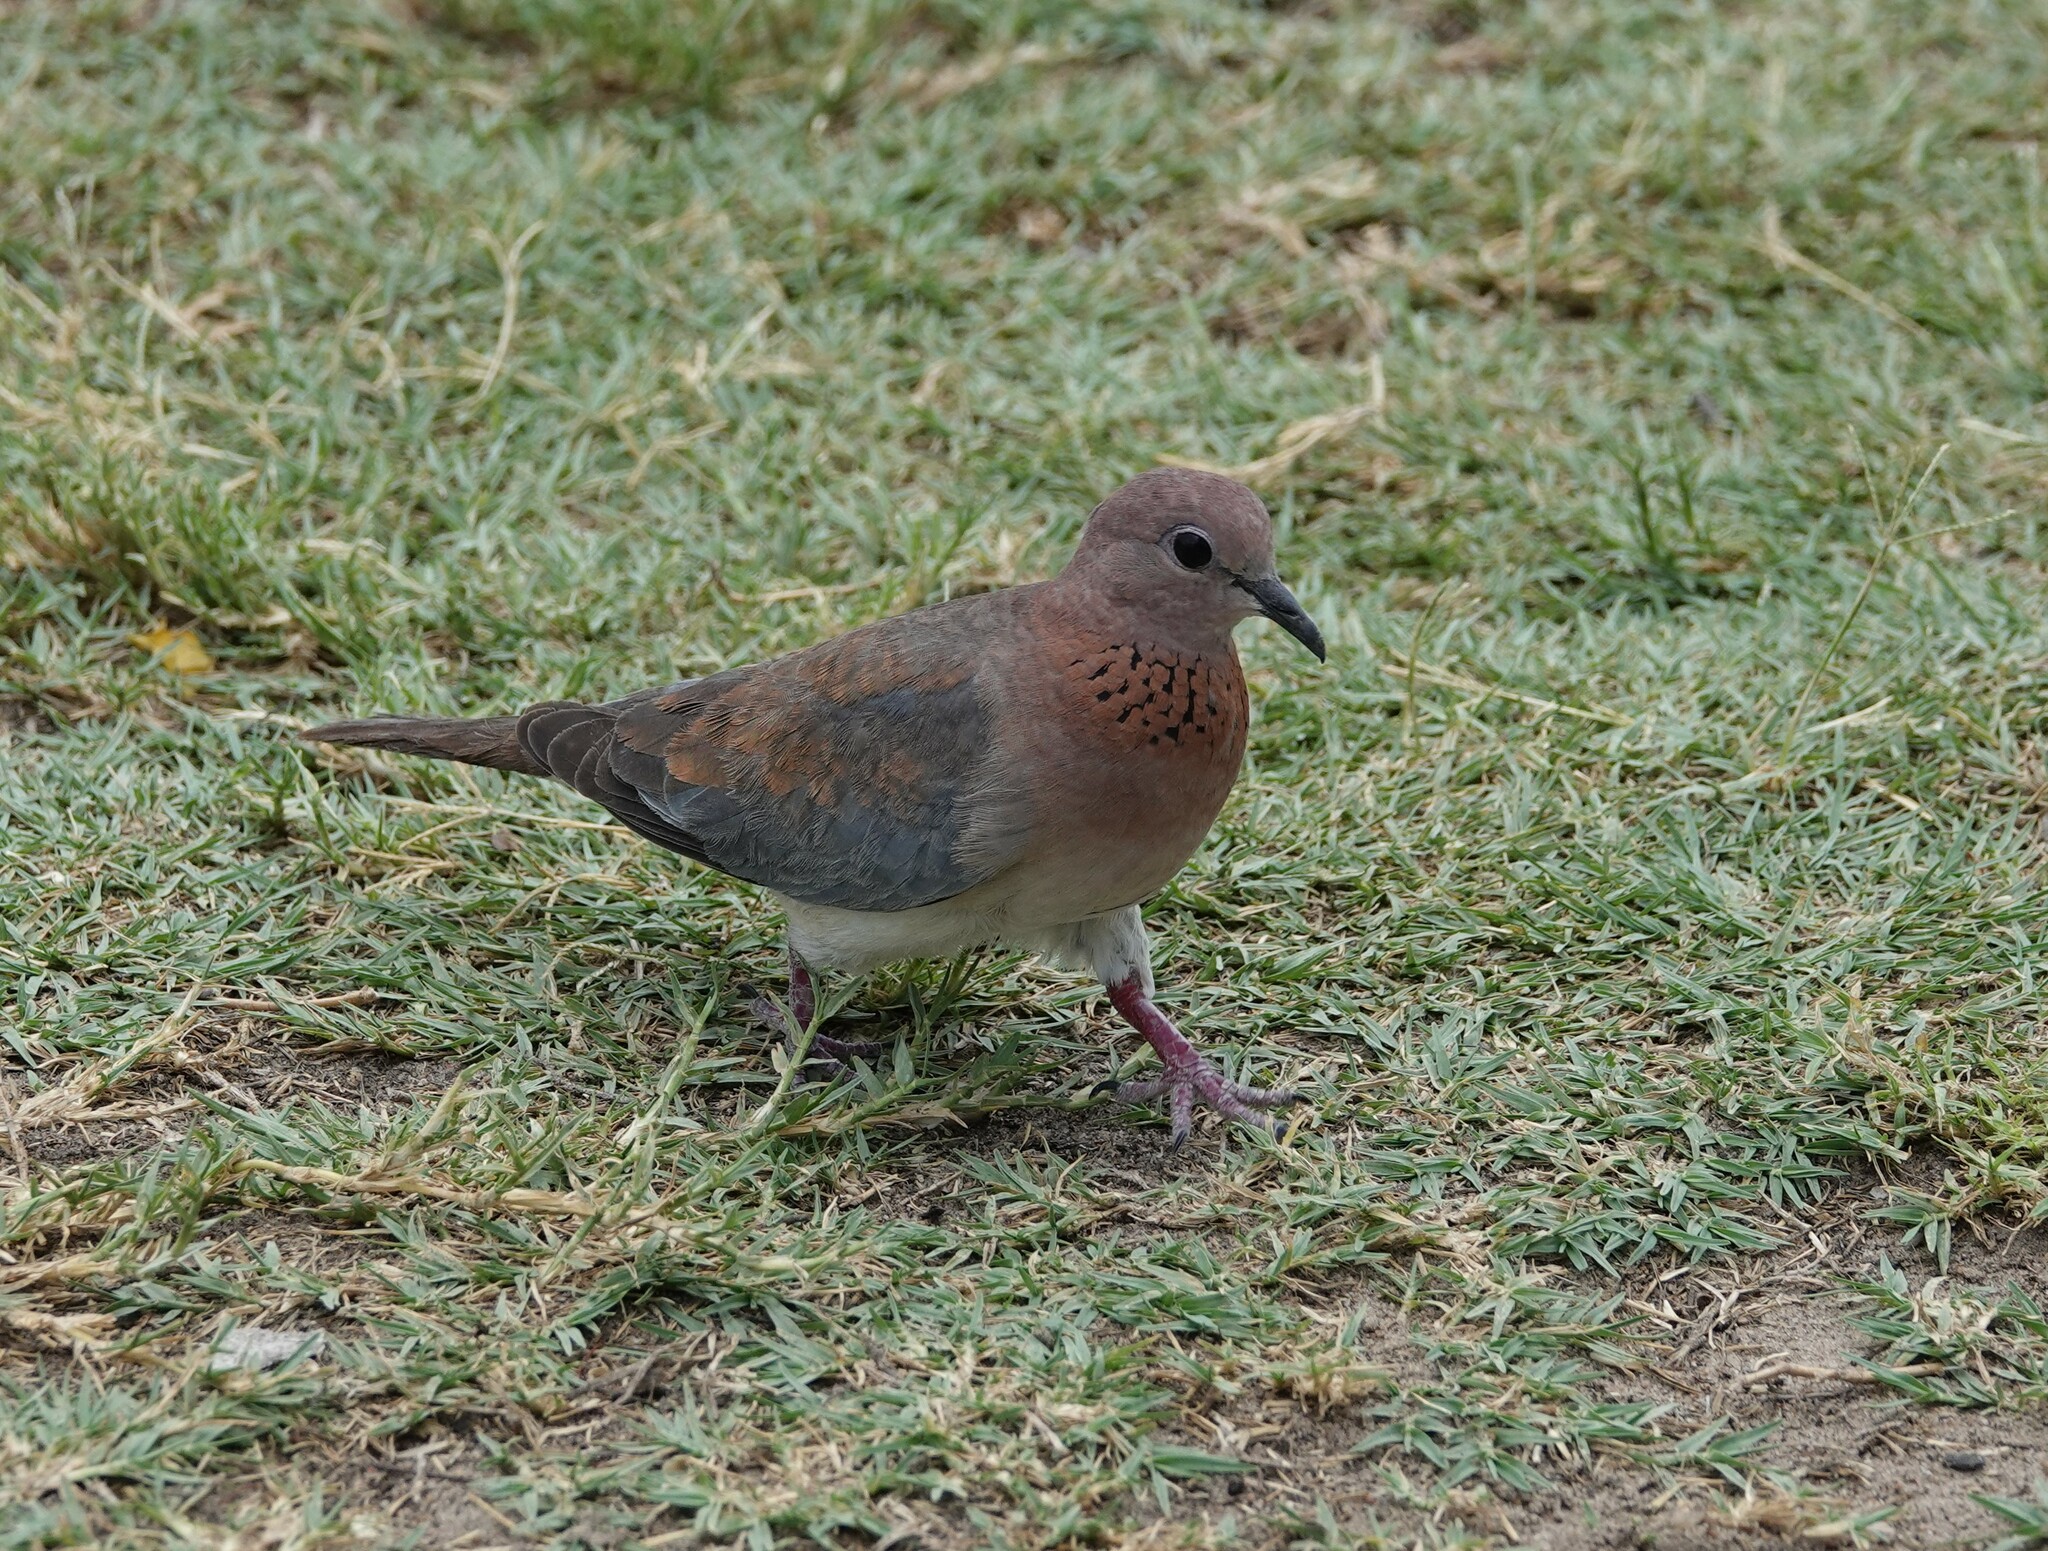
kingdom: Animalia
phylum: Chordata
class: Aves
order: Columbiformes
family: Columbidae
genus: Spilopelia
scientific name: Spilopelia senegalensis
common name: Laughing dove
